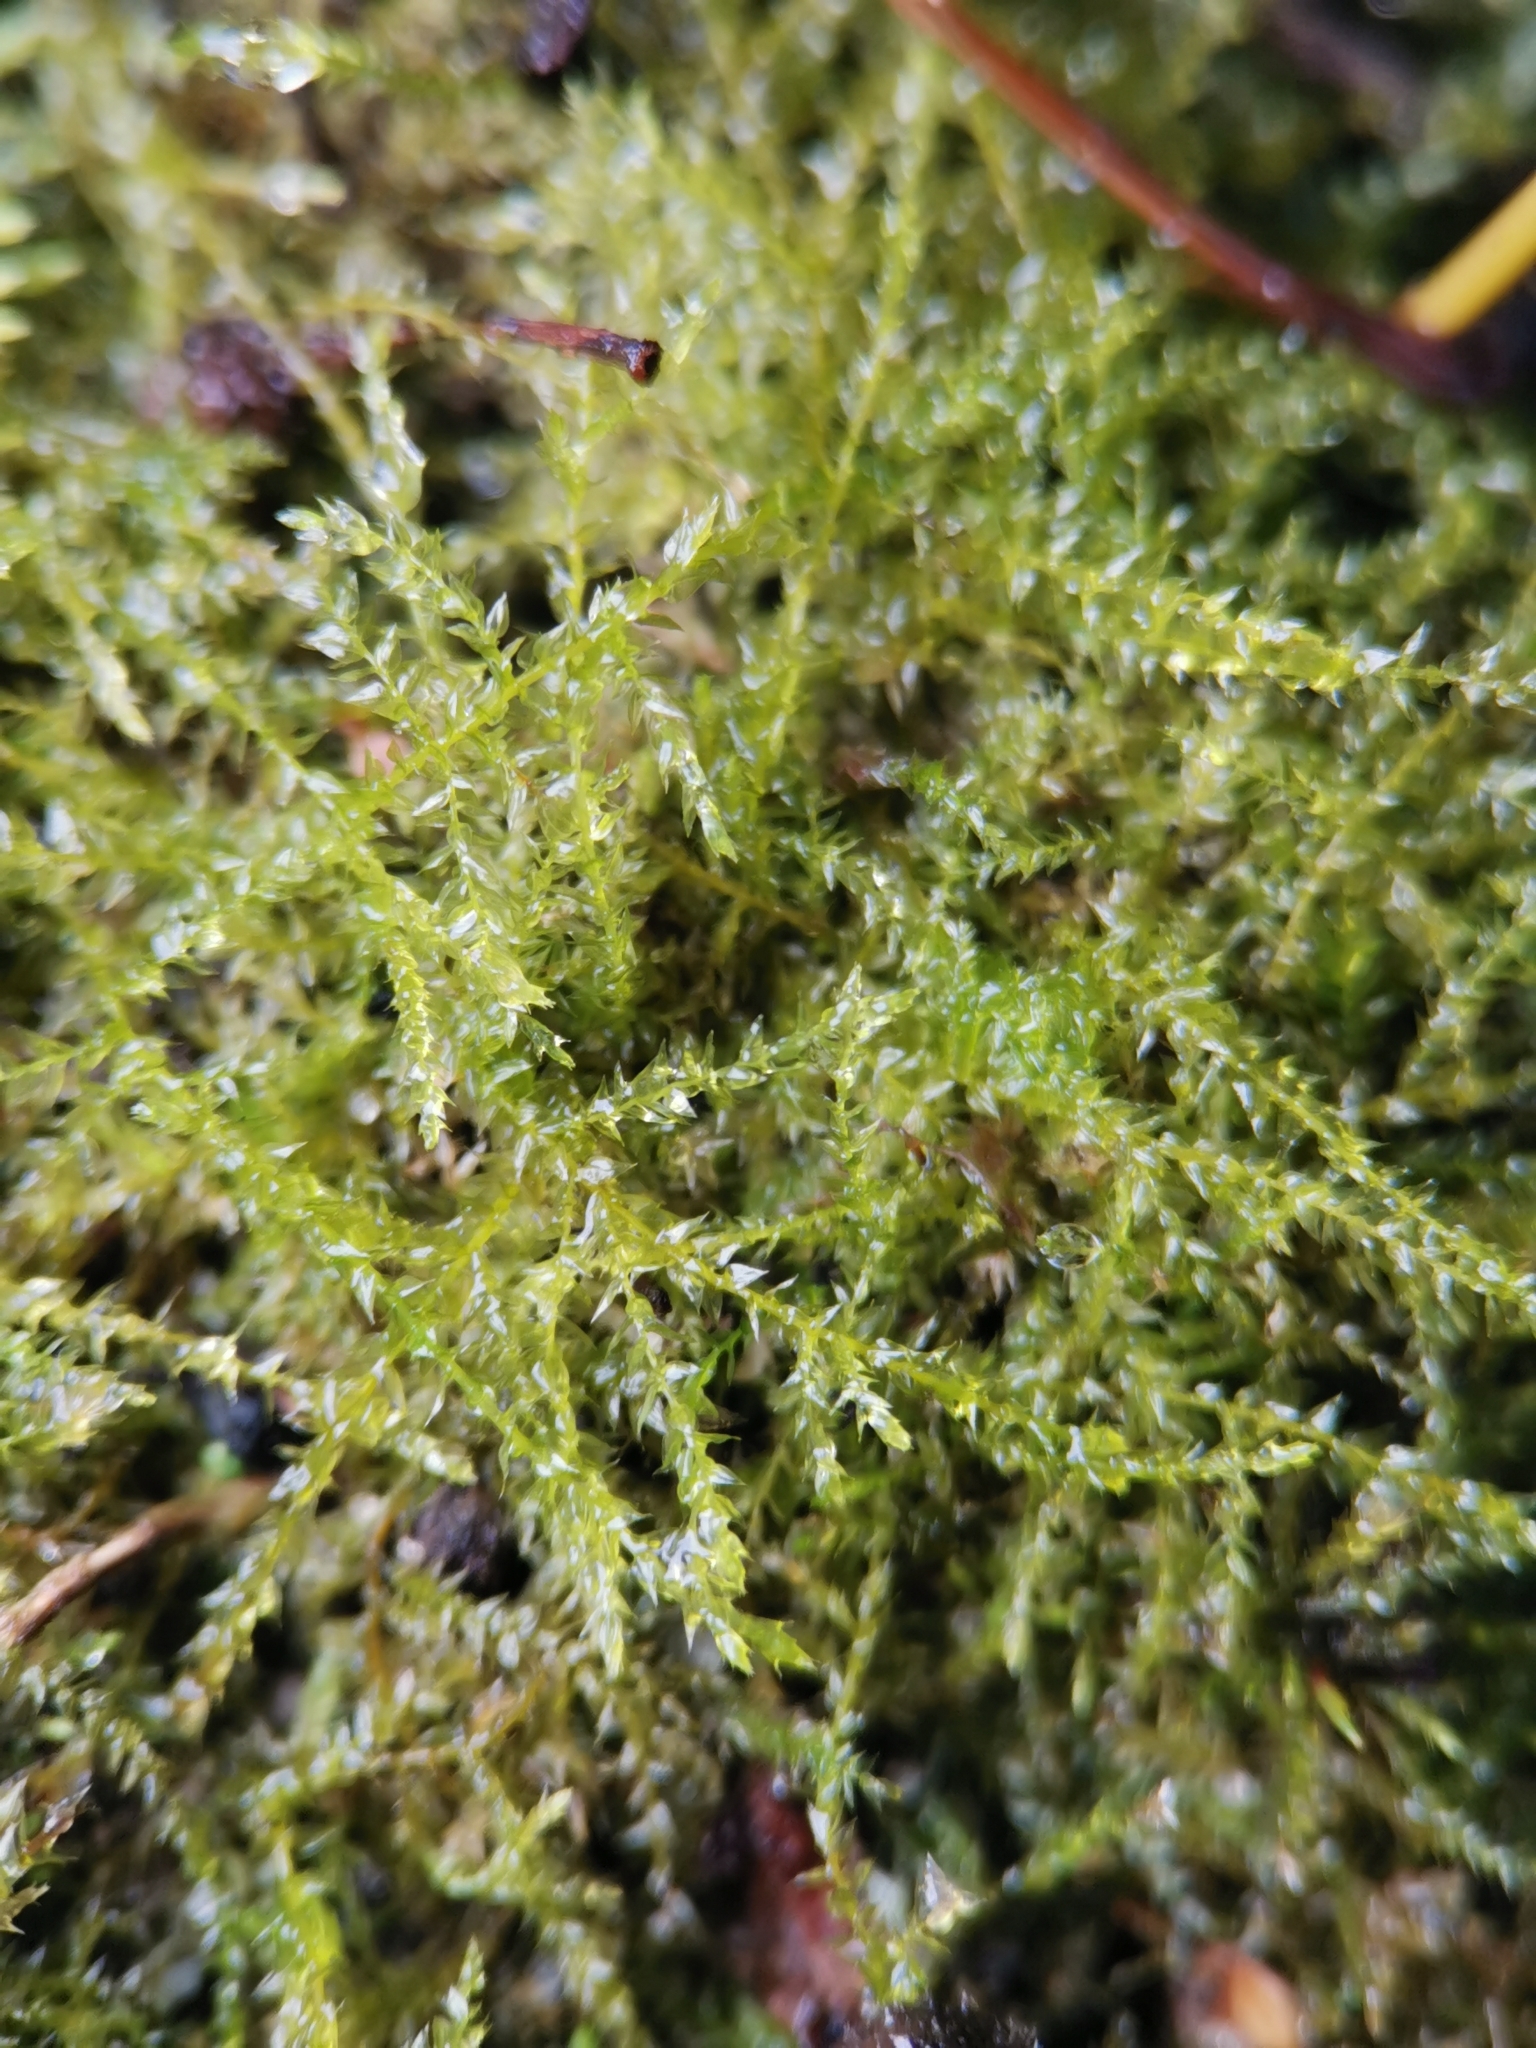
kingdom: Plantae
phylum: Bryophyta
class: Bryopsida
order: Hypnales
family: Brachytheciaceae
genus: Oxyrrhynchium
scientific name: Oxyrrhynchium hians
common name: Spreading beaked moss
